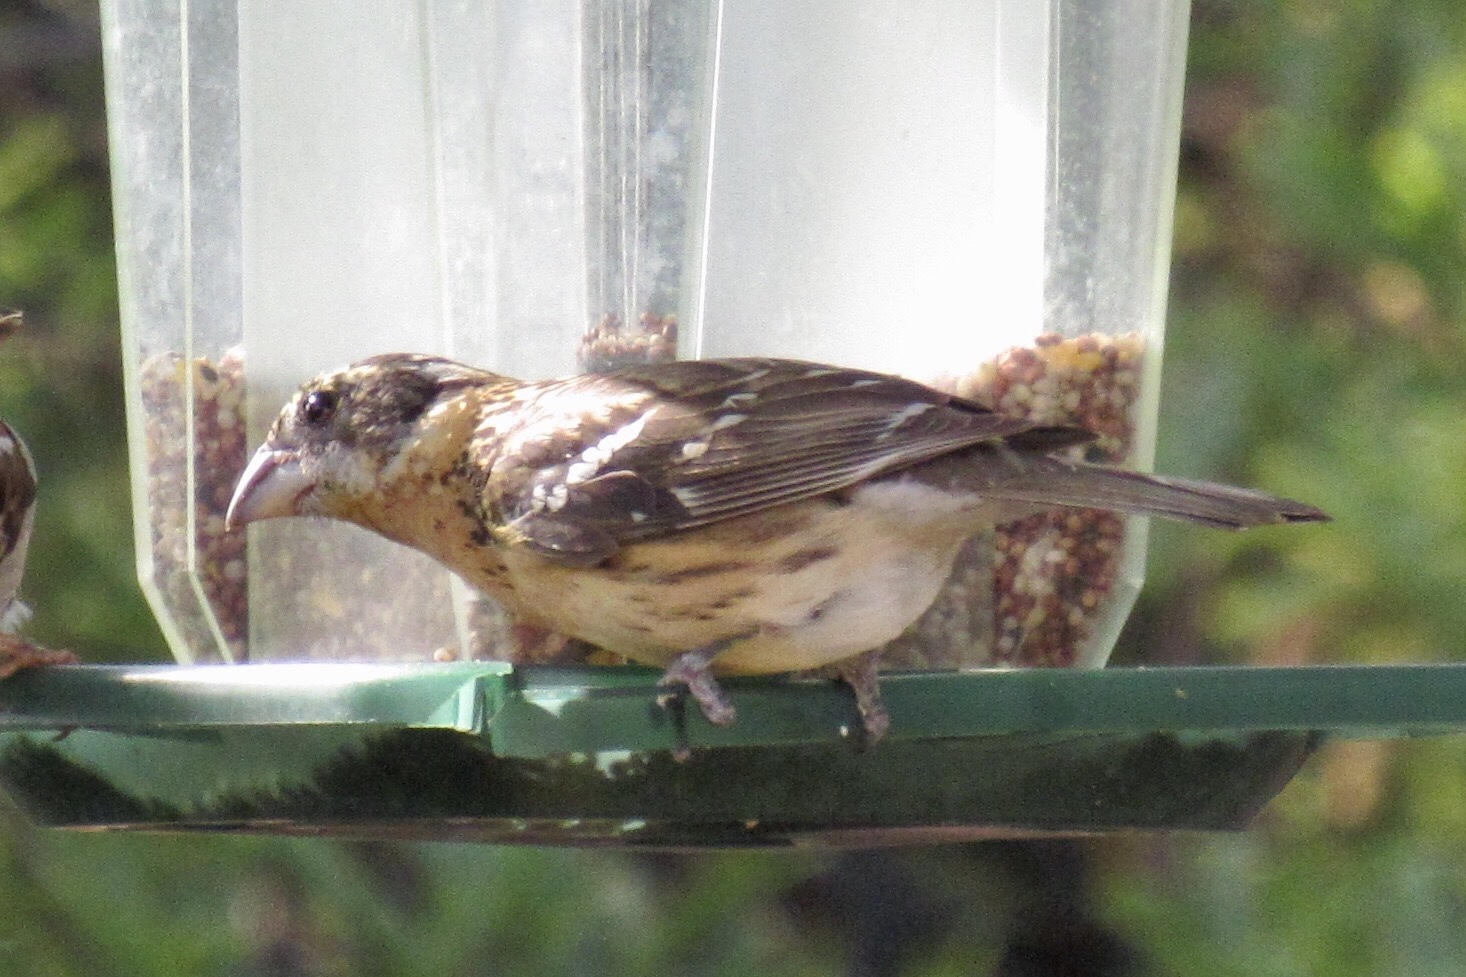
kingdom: Animalia
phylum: Chordata
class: Aves
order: Passeriformes
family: Cardinalidae
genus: Pheucticus
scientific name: Pheucticus melanocephalus
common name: Black-headed grosbeak
